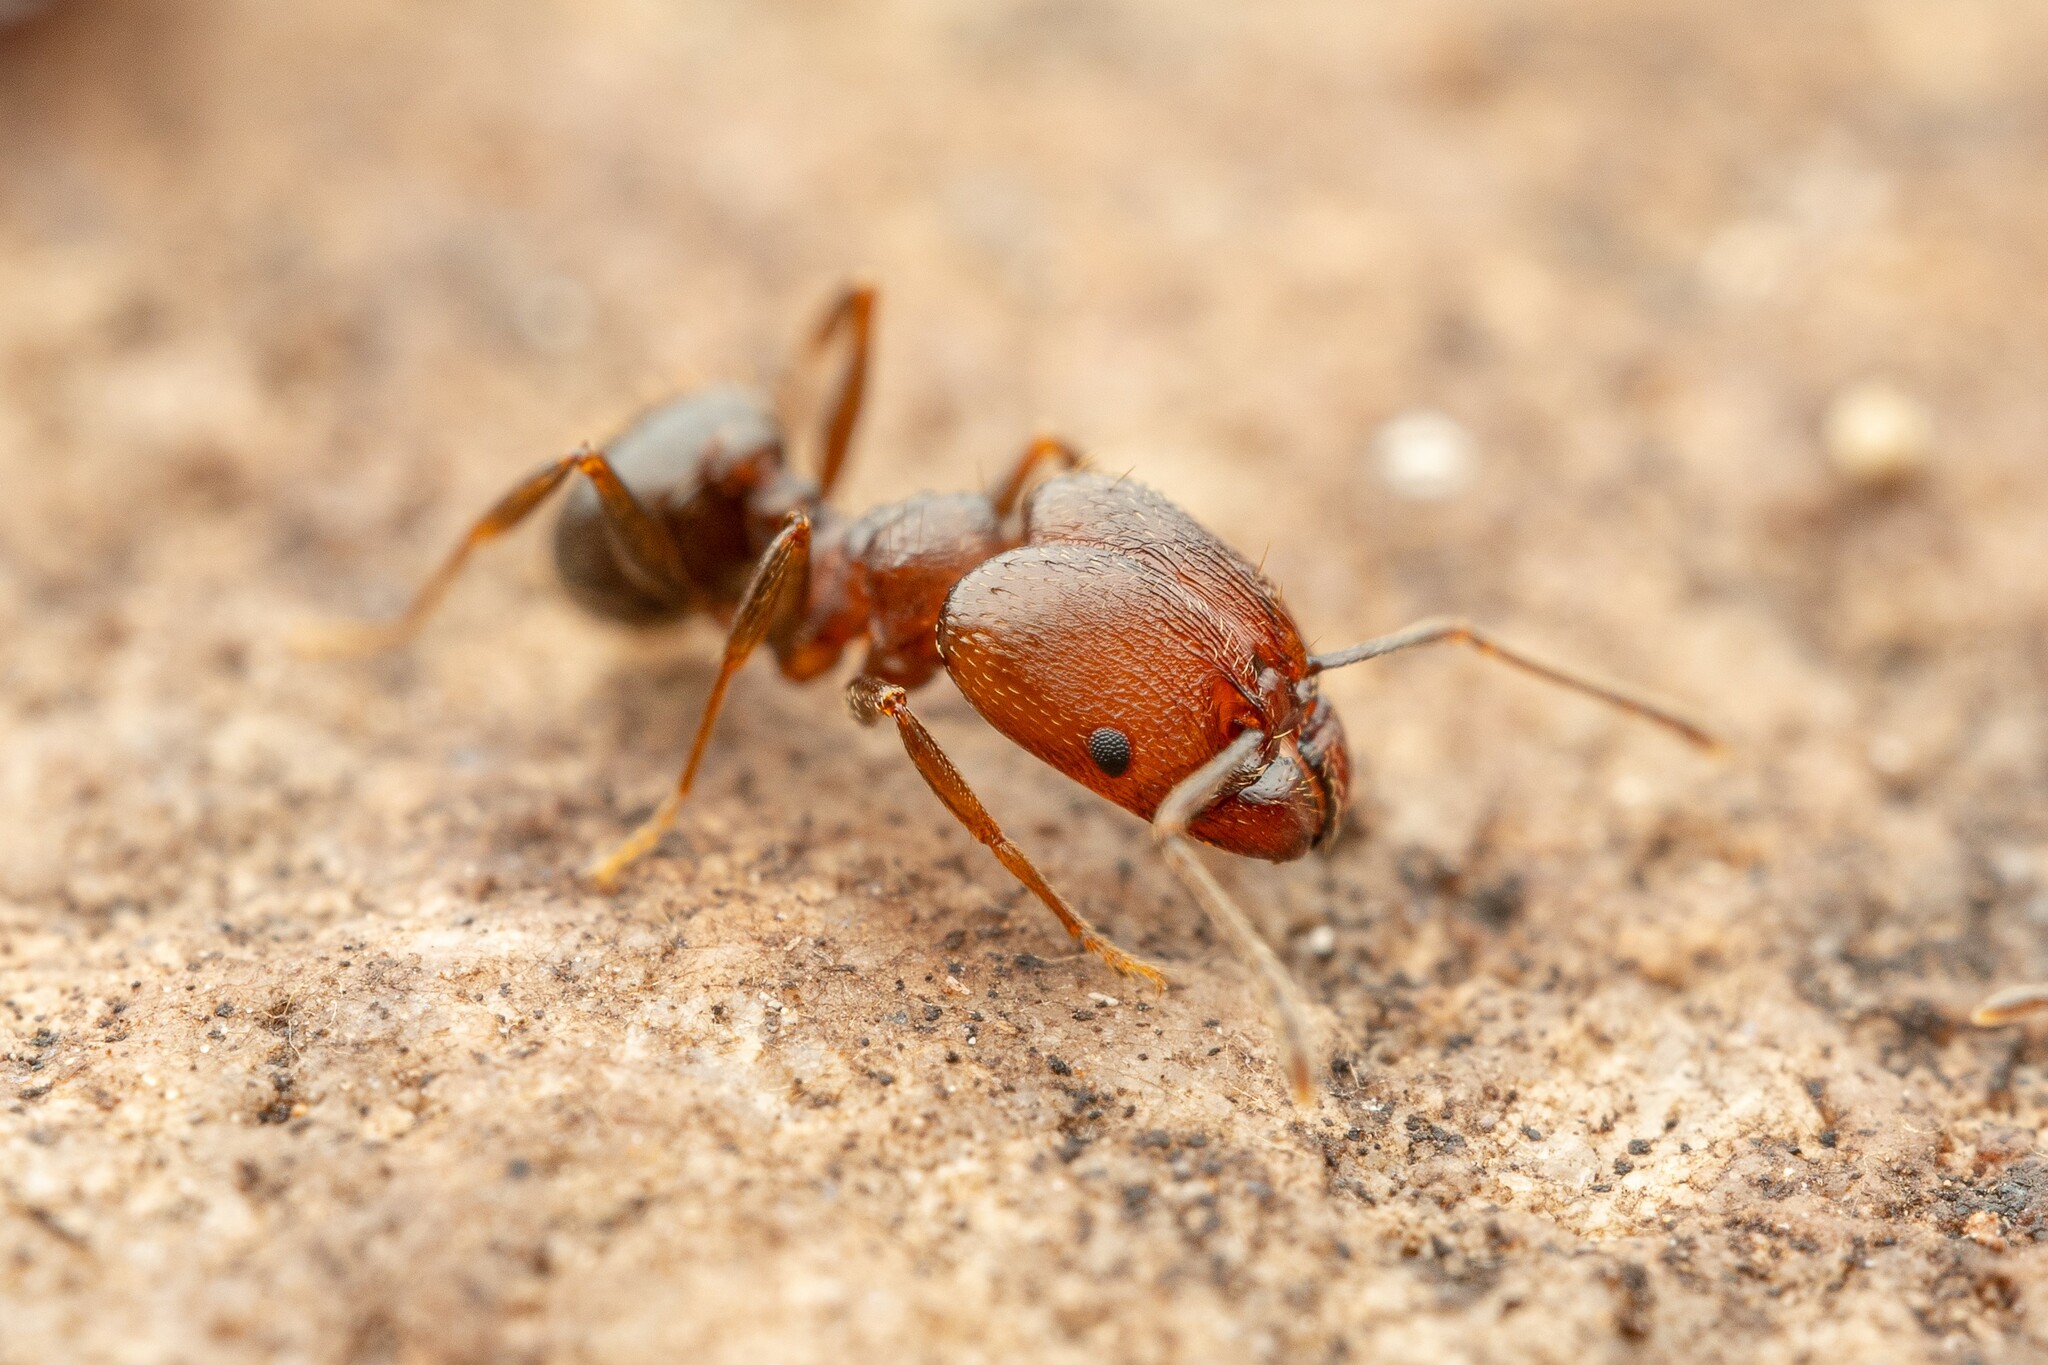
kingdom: Animalia
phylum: Arthropoda
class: Insecta
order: Hymenoptera
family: Formicidae
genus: Pheidole
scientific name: Pheidole vallicola
